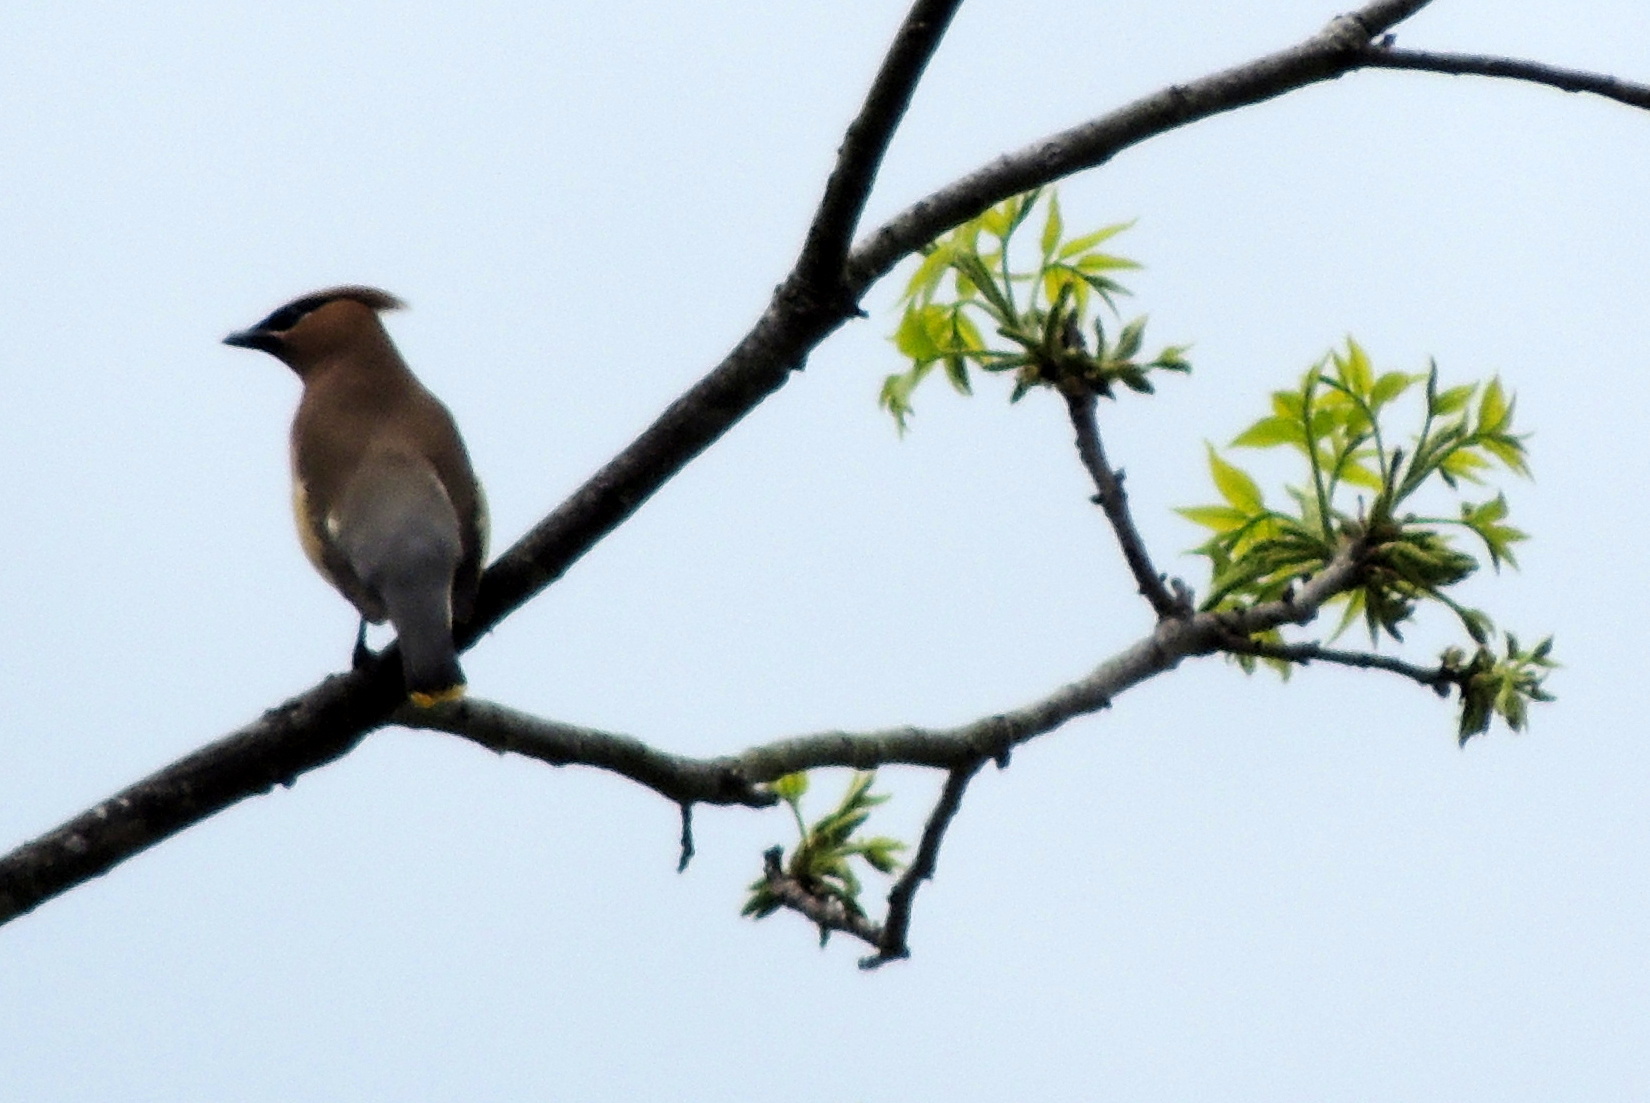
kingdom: Animalia
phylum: Chordata
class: Aves
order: Passeriformes
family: Bombycillidae
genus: Bombycilla
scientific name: Bombycilla cedrorum
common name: Cedar waxwing
